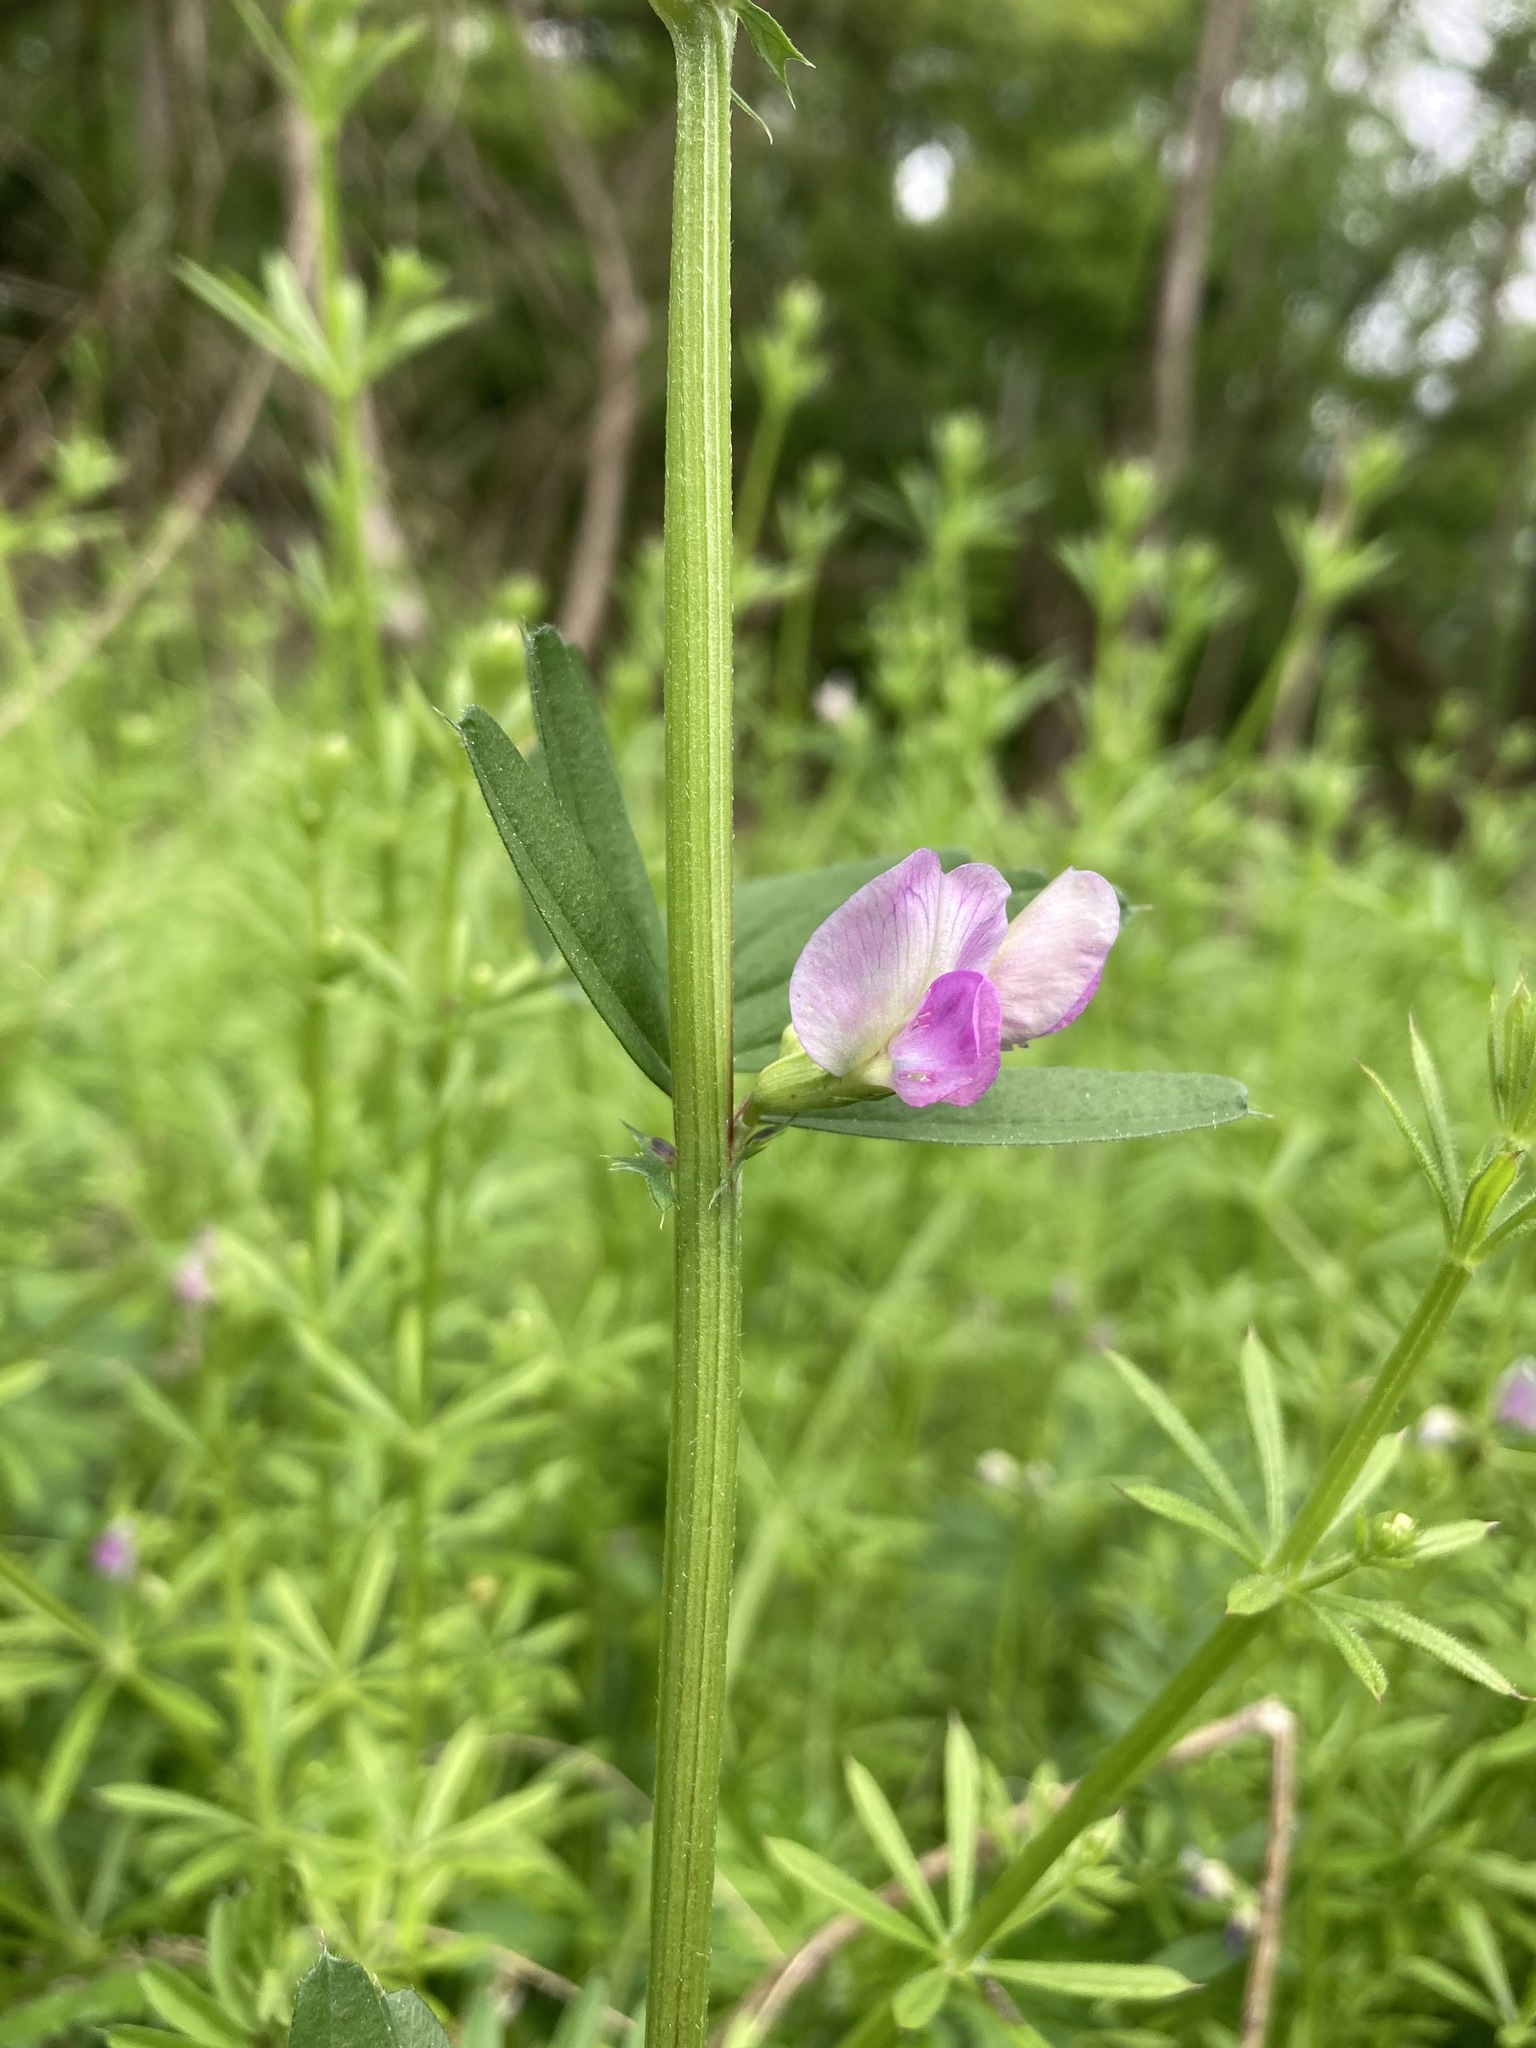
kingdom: Plantae
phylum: Tracheophyta
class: Magnoliopsida
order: Fabales
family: Fabaceae
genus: Vicia
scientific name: Vicia sativa
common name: Garden vetch
